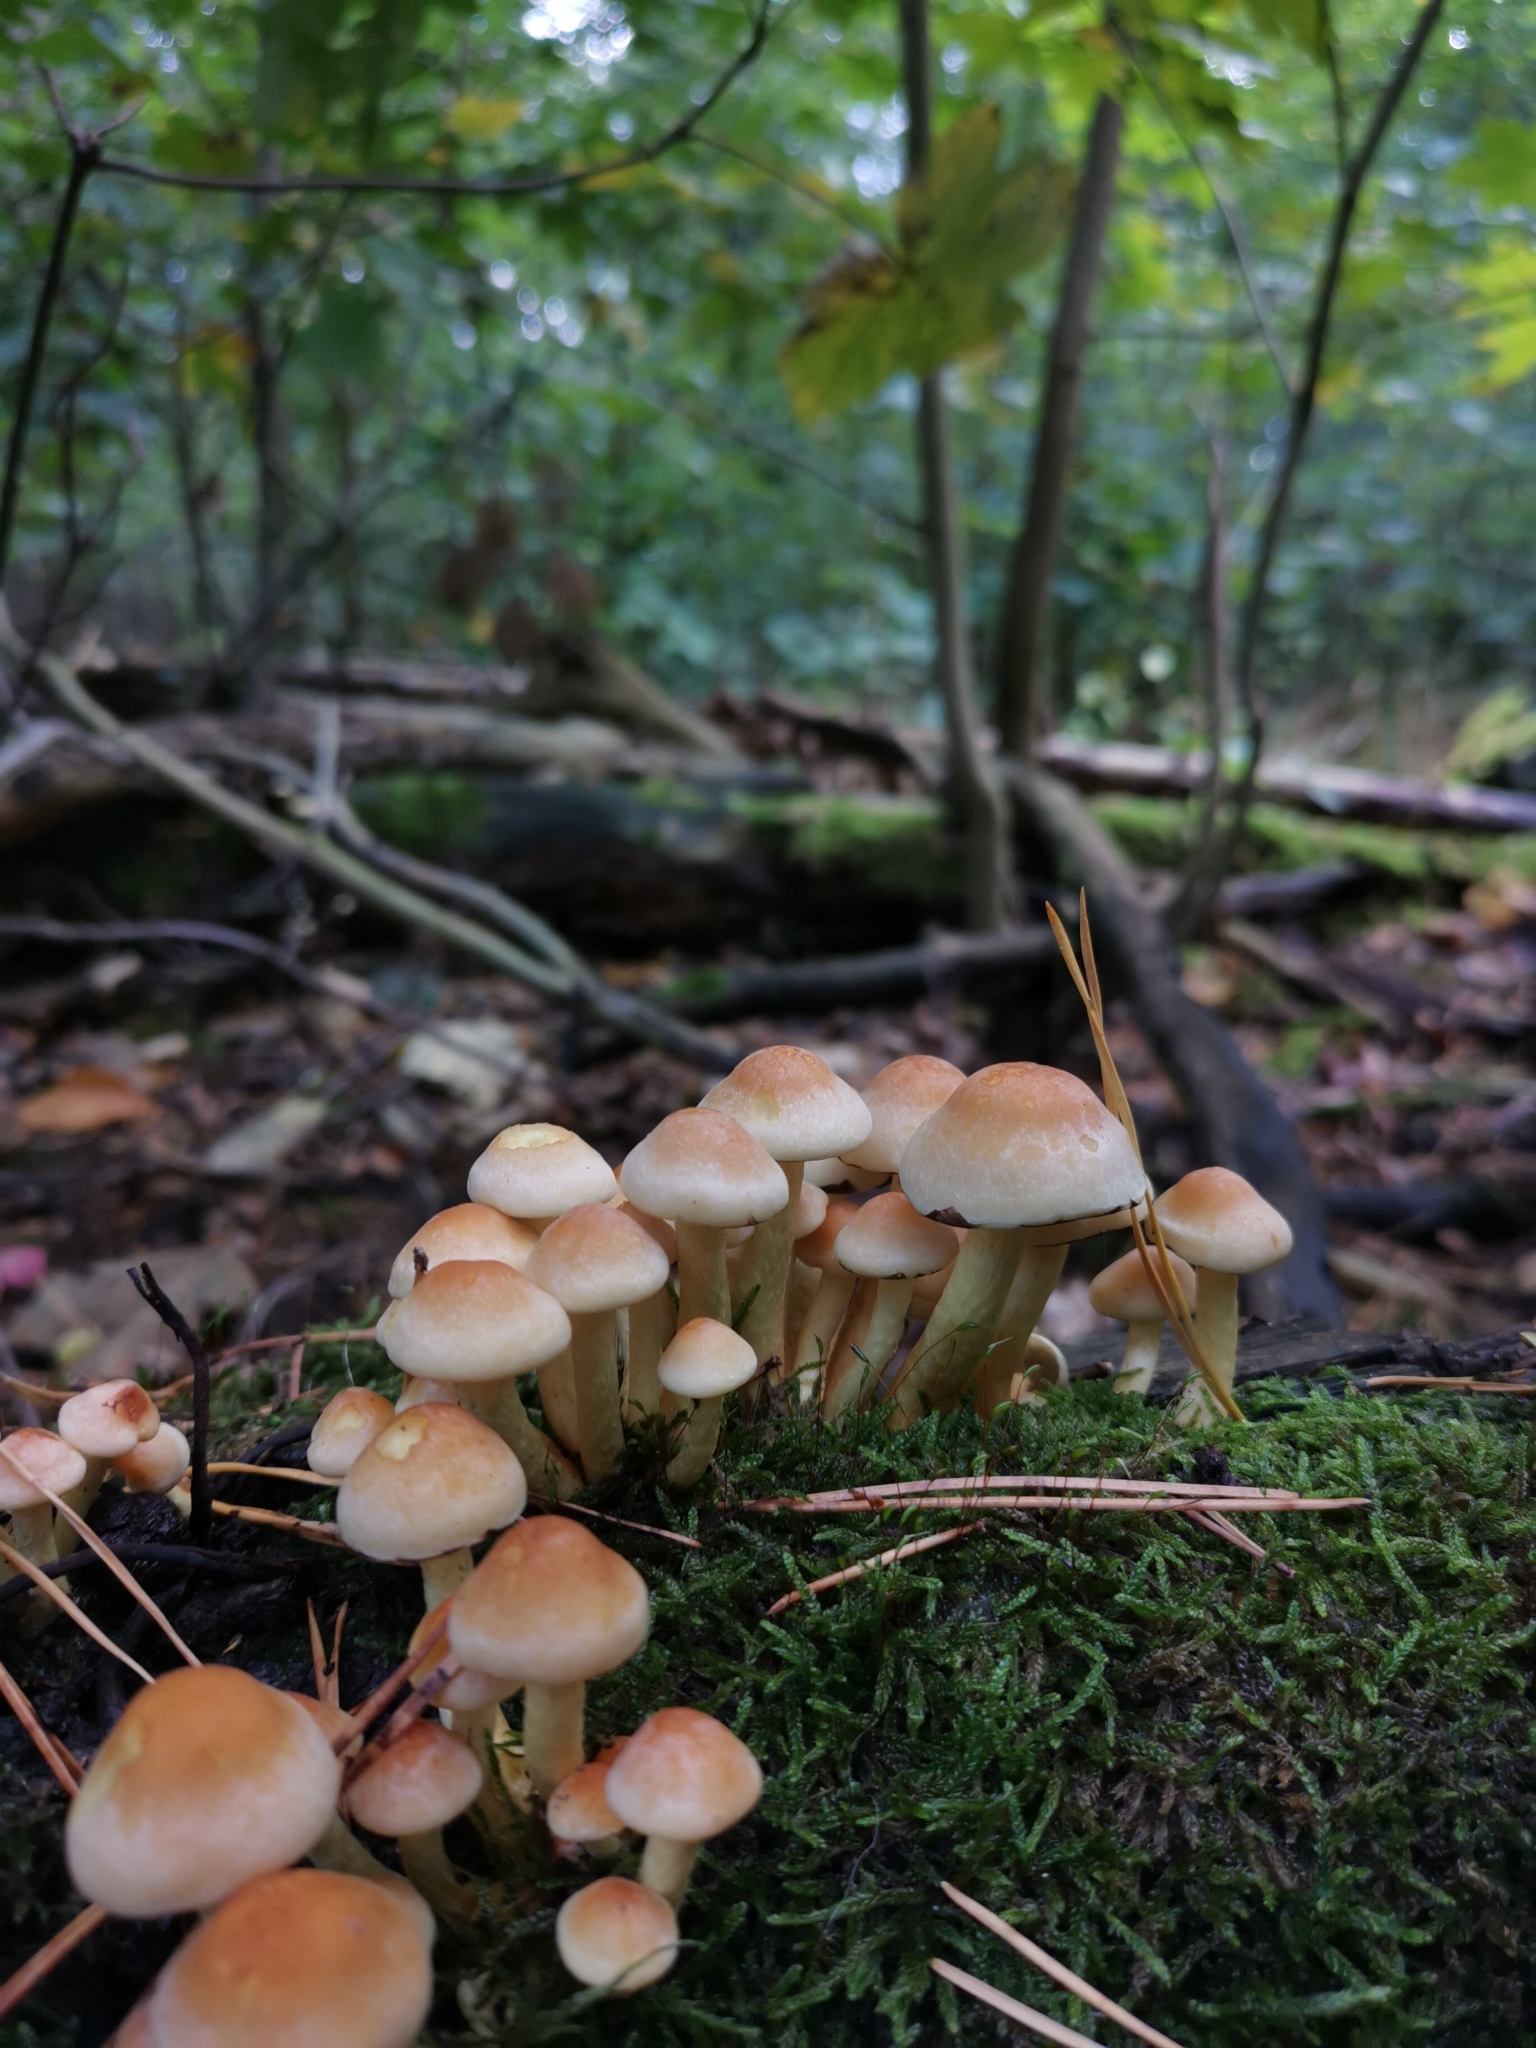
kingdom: Fungi
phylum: Basidiomycota
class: Agaricomycetes
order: Agaricales
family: Strophariaceae
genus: Hypholoma
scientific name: Hypholoma fasciculare
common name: Sulphur tuft
